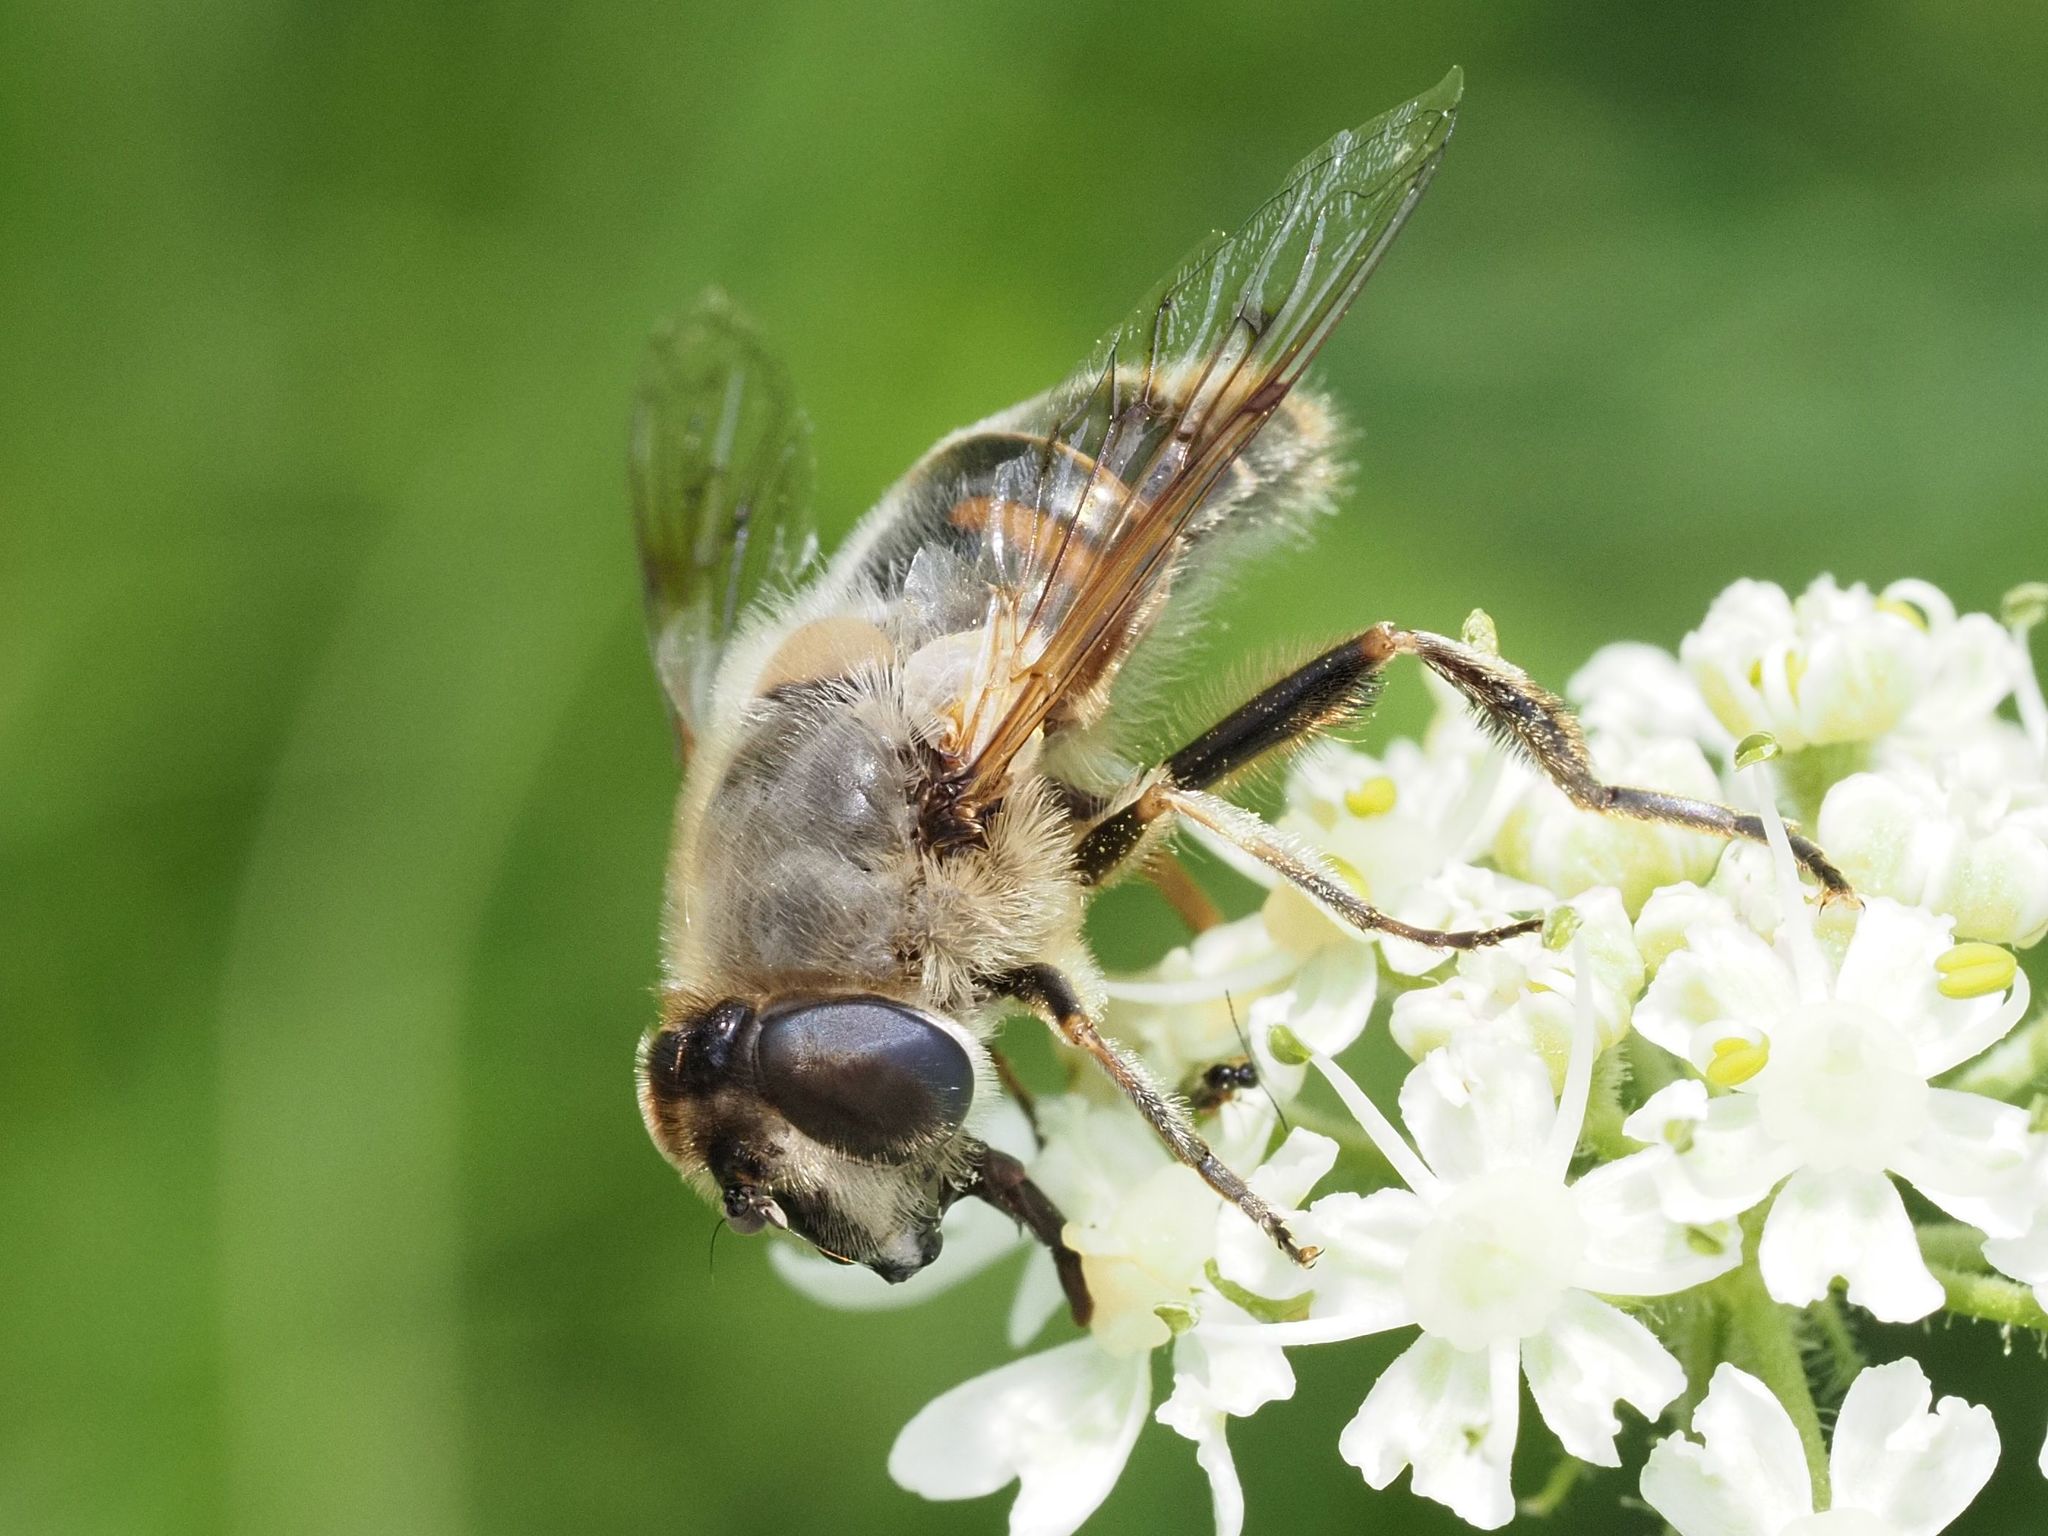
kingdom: Animalia
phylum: Arthropoda
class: Insecta
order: Diptera
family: Syrphidae
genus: Eristalis
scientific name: Eristalis tenax
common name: Drone fly
